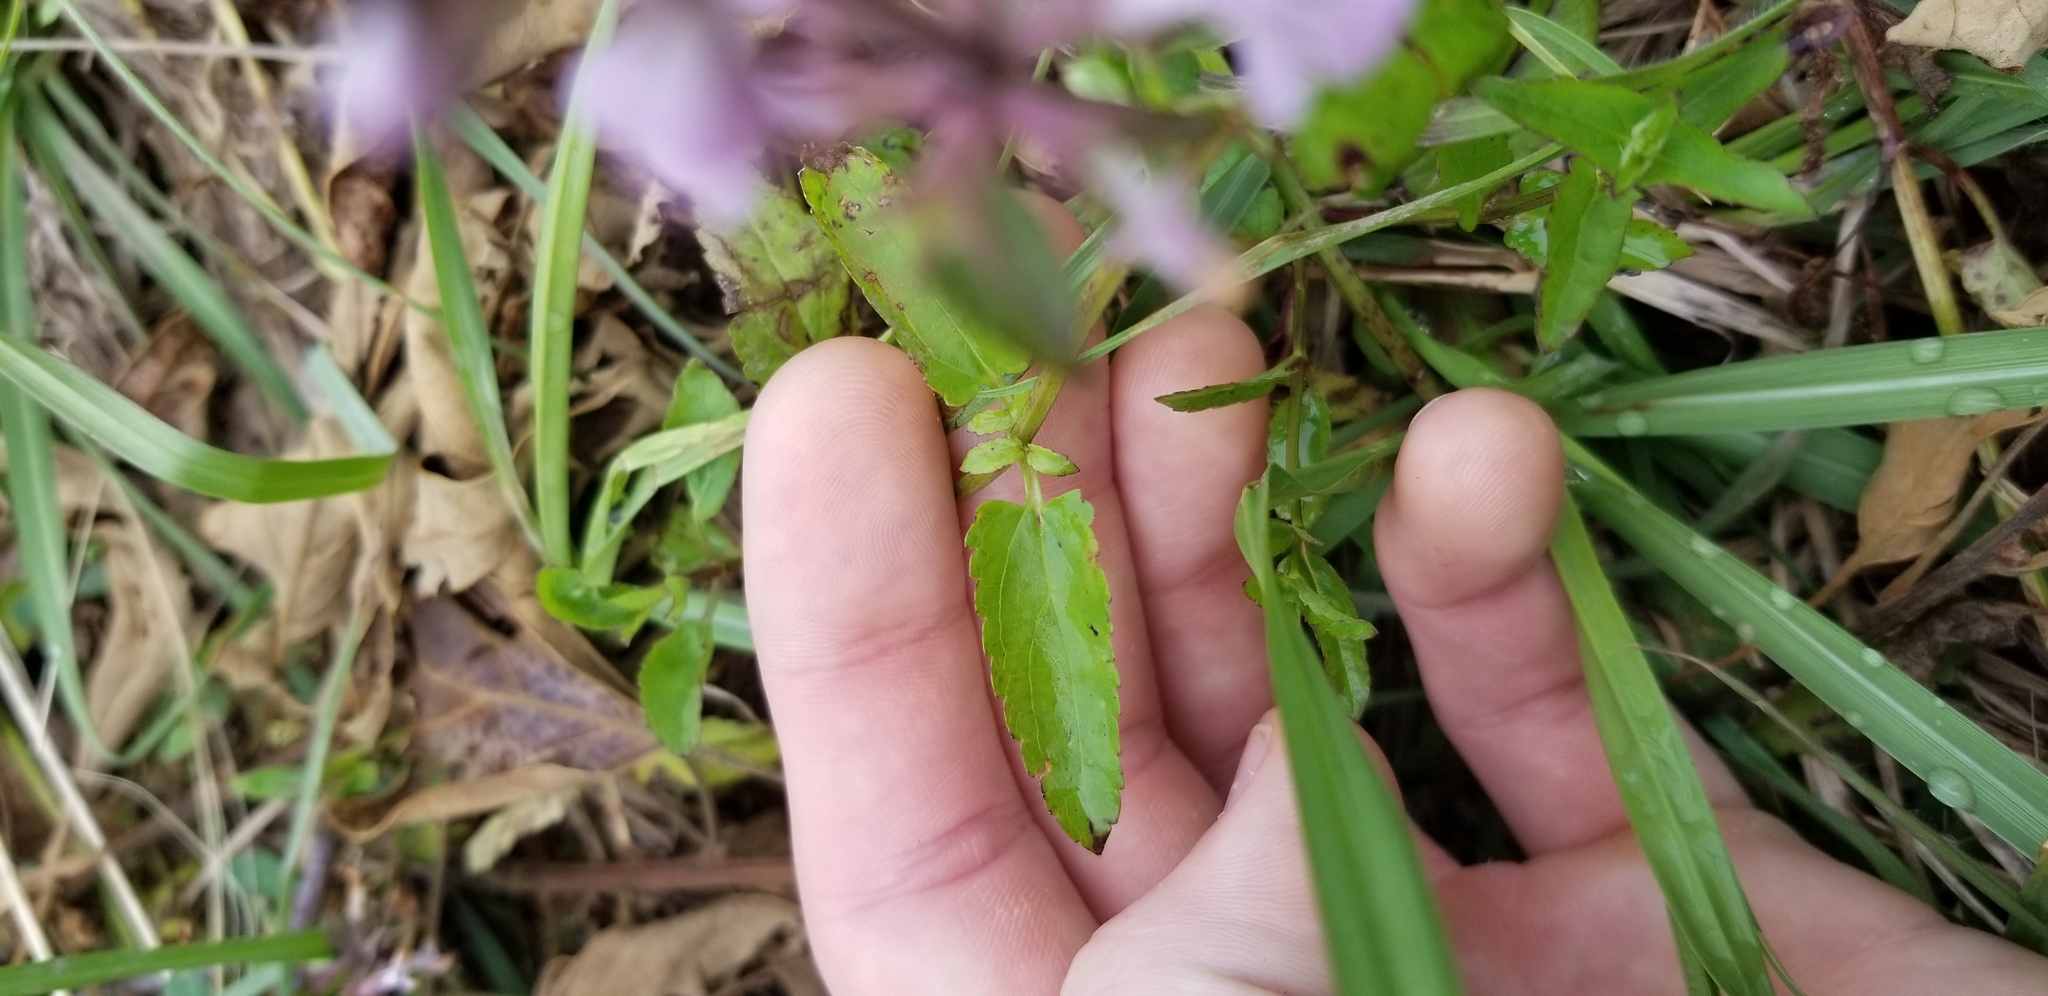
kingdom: Plantae
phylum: Tracheophyta
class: Magnoliopsida
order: Lamiales
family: Lamiaceae
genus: Stachys
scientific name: Stachys floridana
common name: Florida betony
